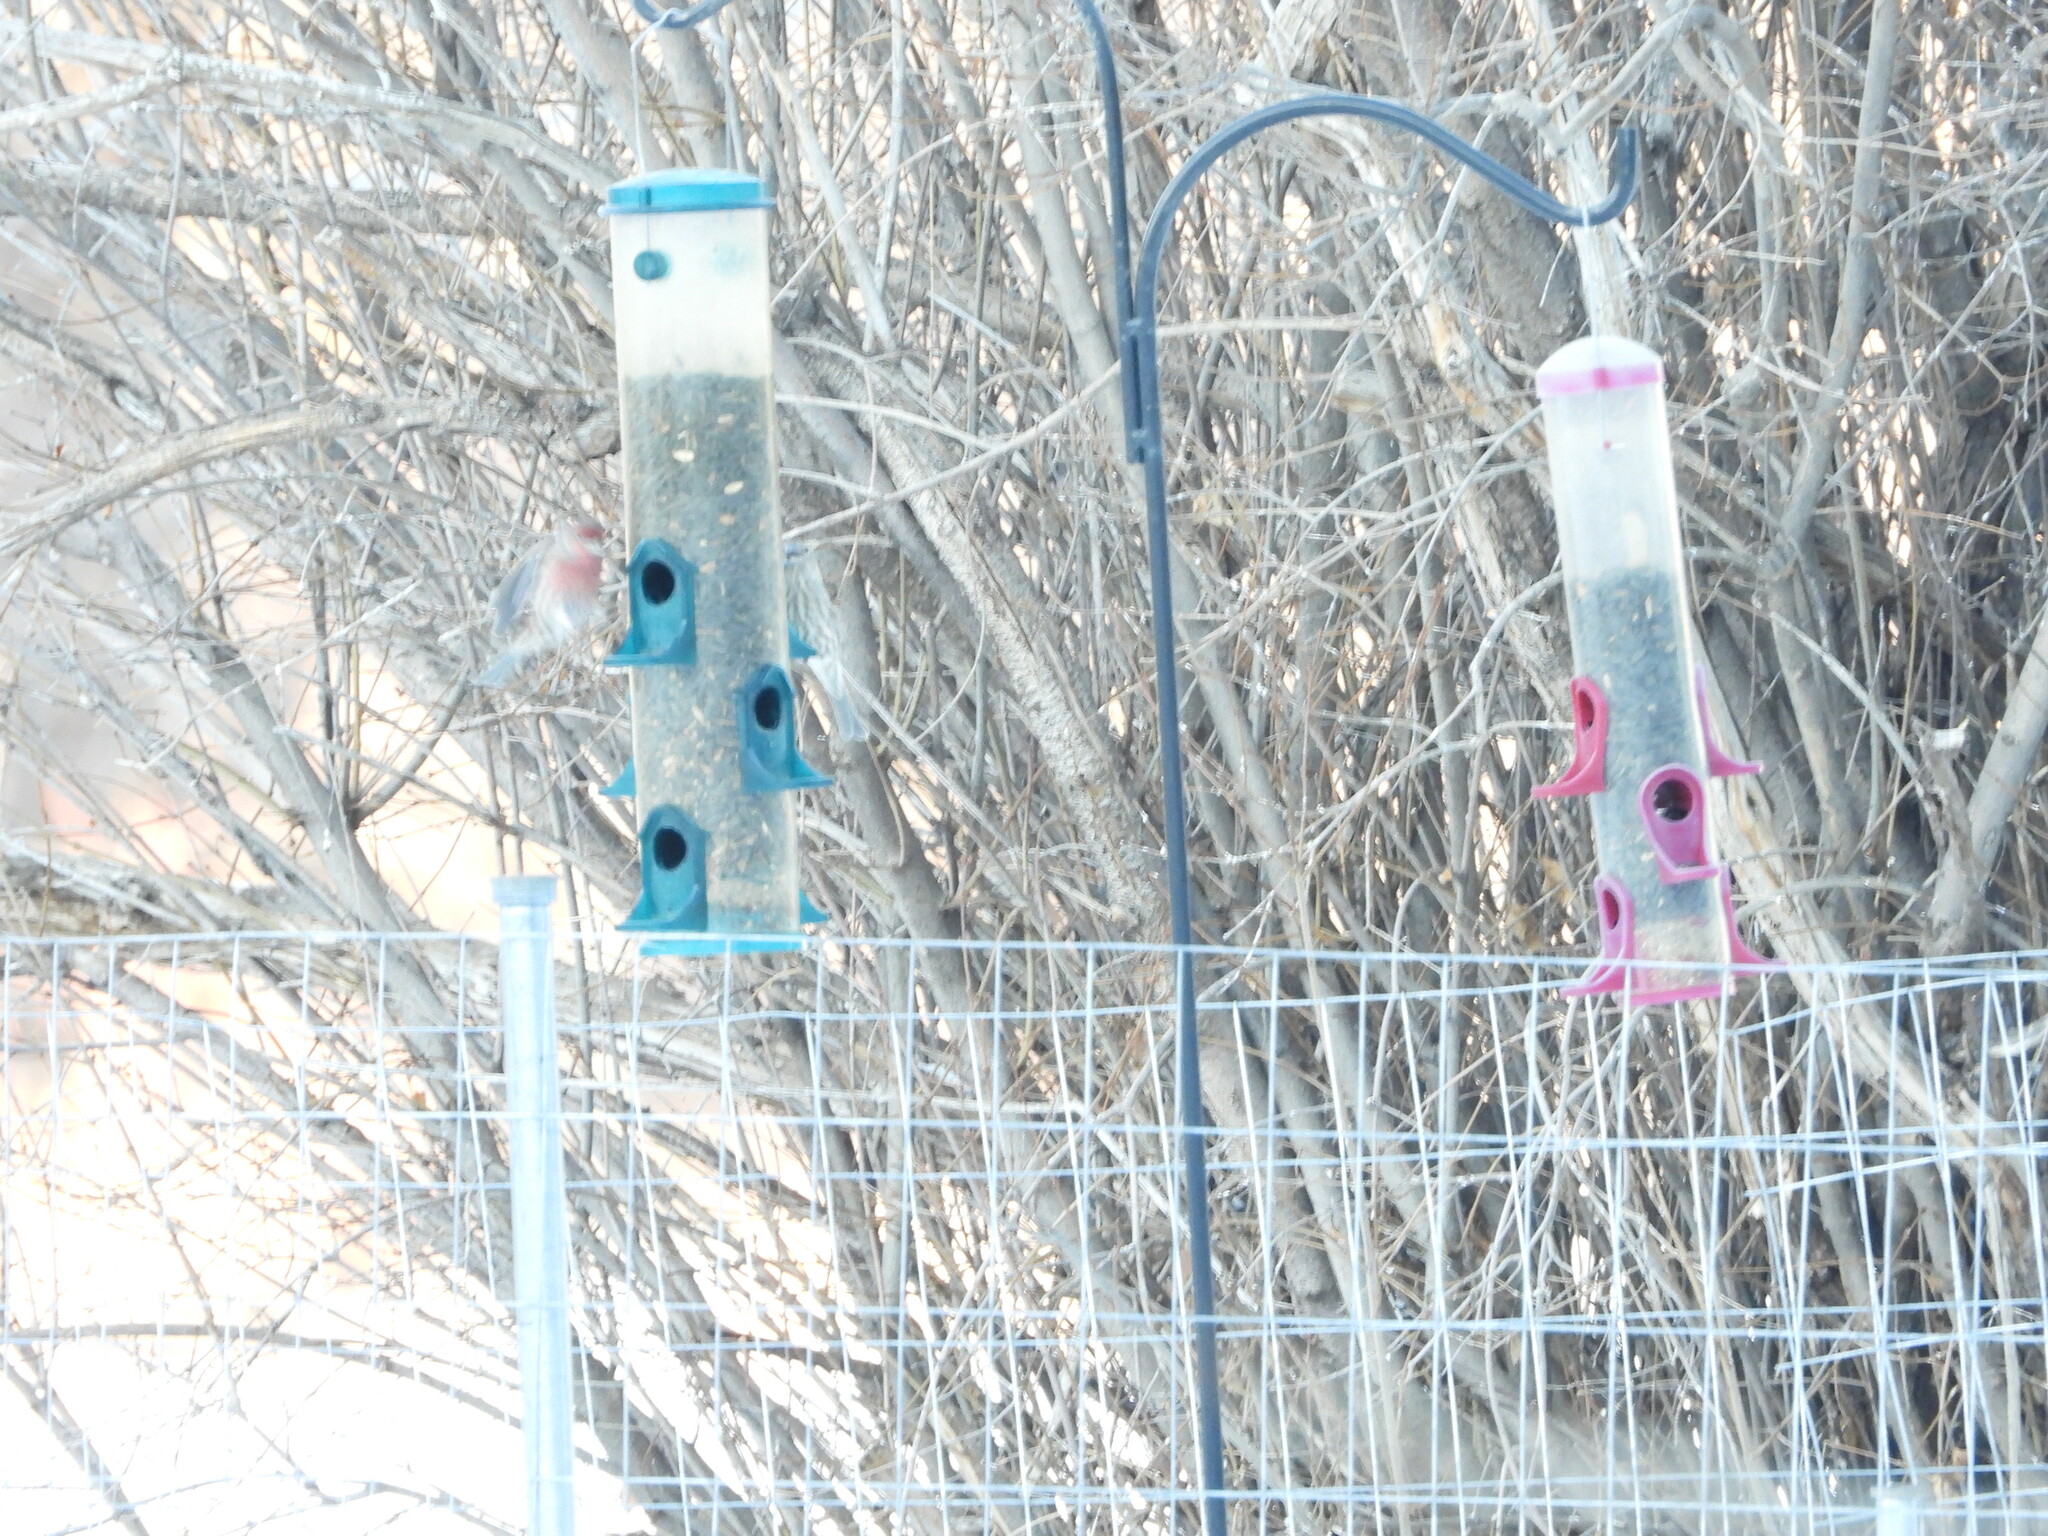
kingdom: Animalia
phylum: Chordata
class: Aves
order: Passeriformes
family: Fringillidae
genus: Haemorhous
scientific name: Haemorhous mexicanus
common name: House finch
